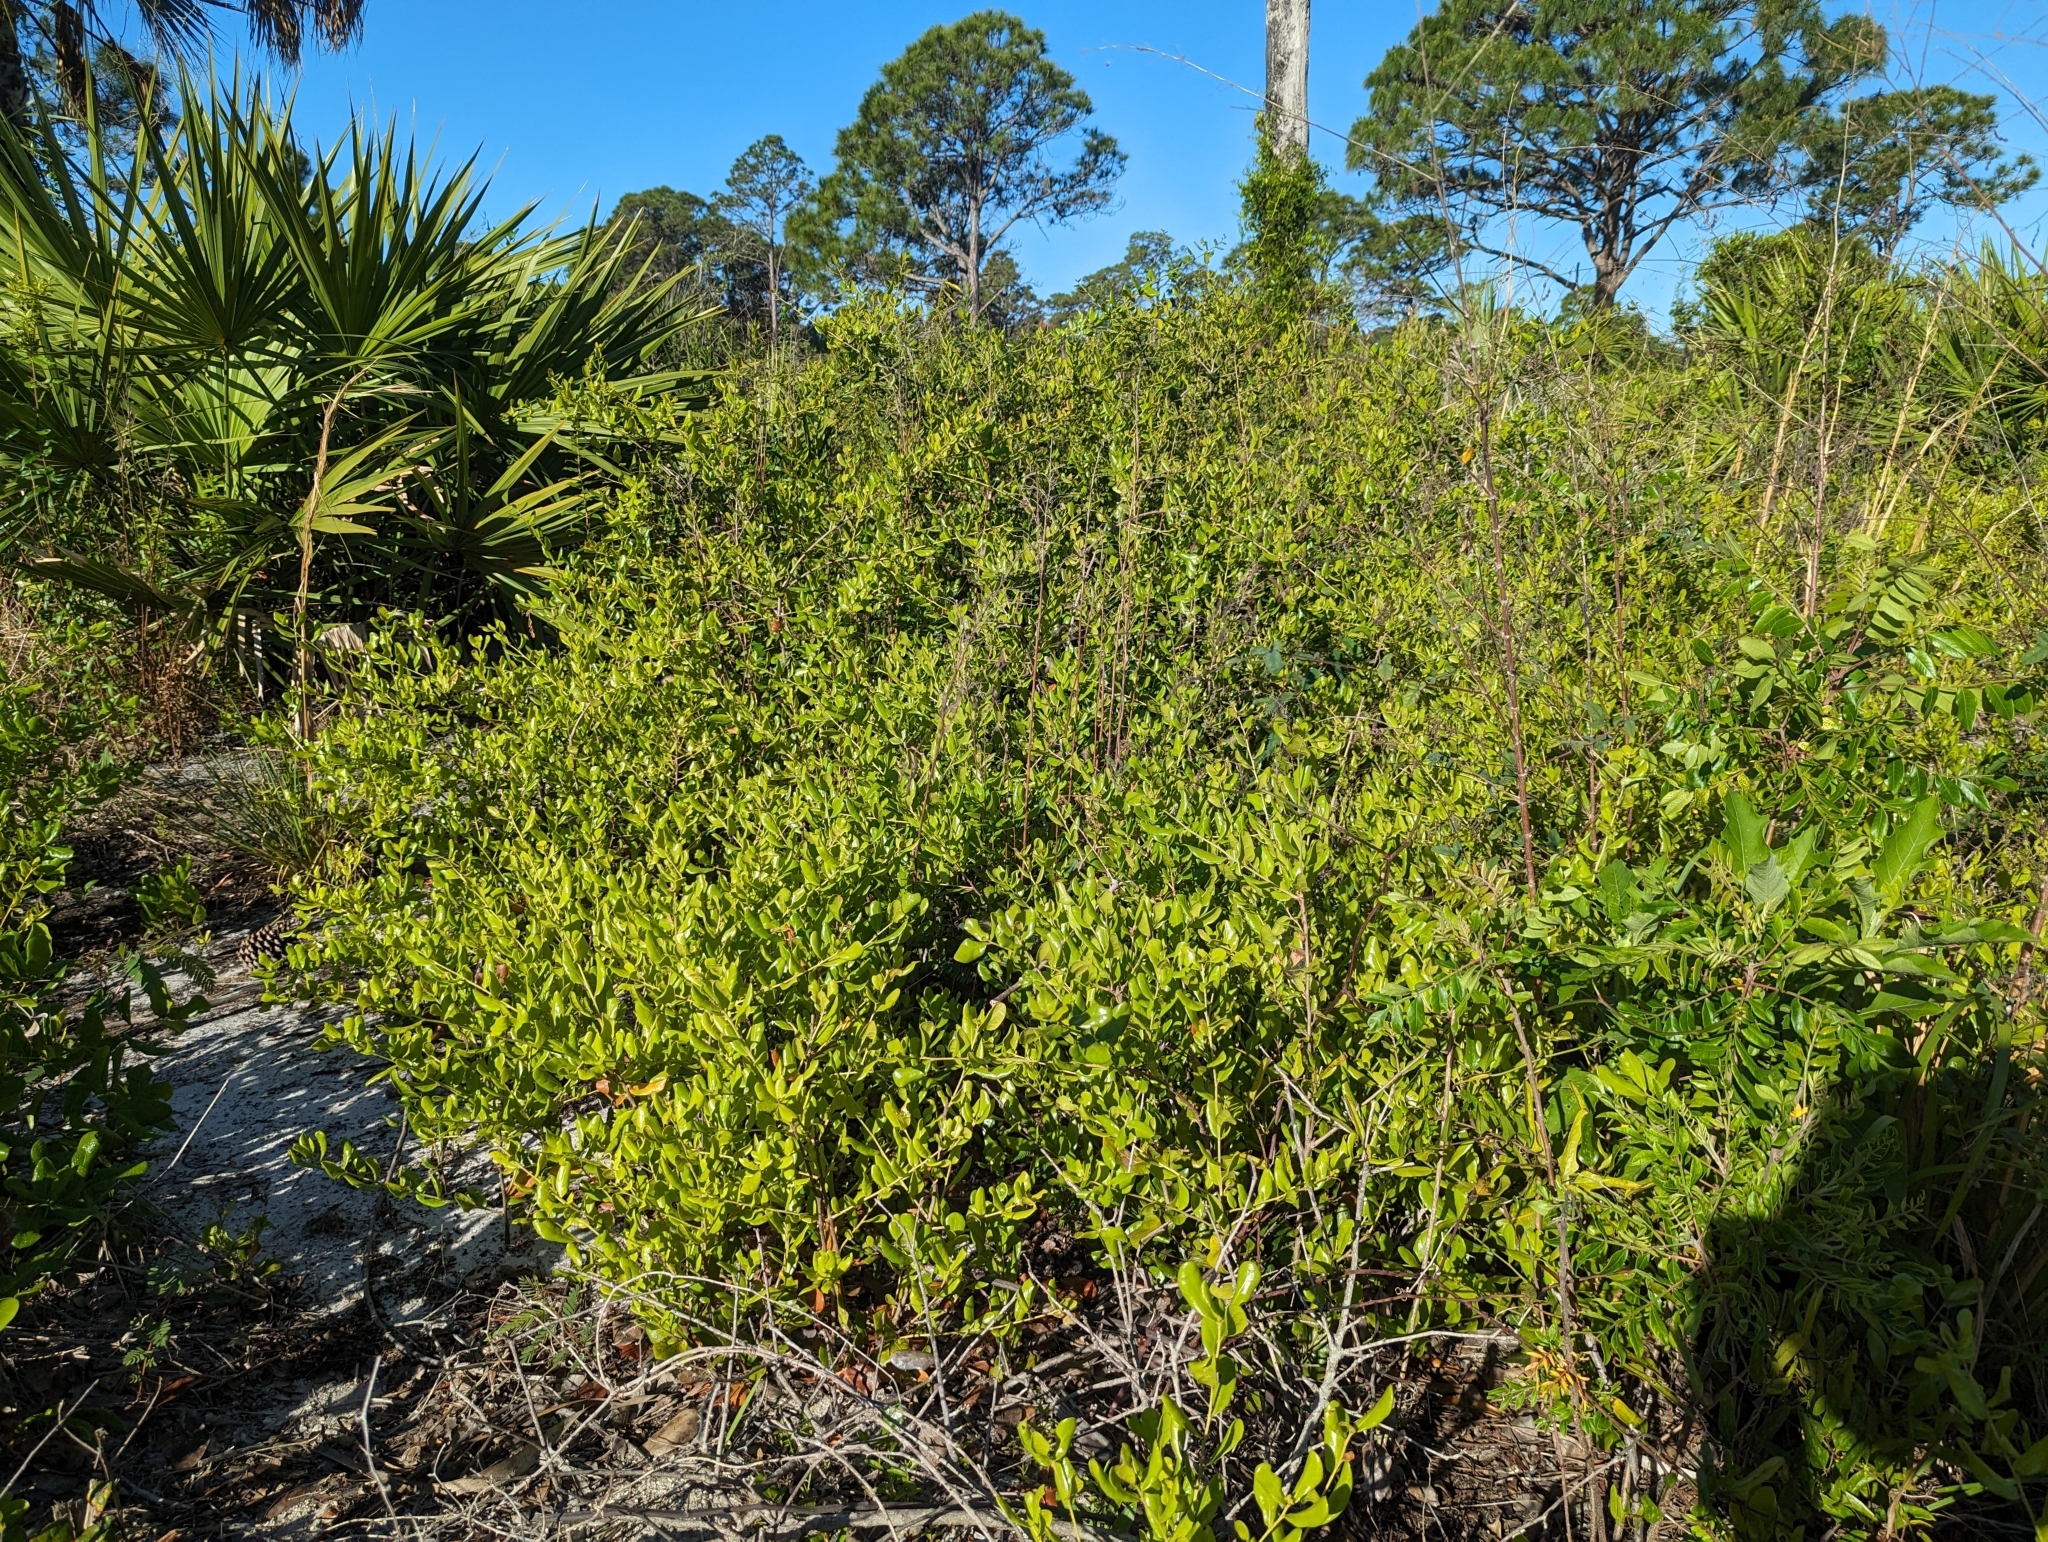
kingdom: Plantae
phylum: Tracheophyta
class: Magnoliopsida
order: Fagales
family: Fagaceae
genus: Quercus
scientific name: Quercus myrtifolia
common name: Myrtle oak
